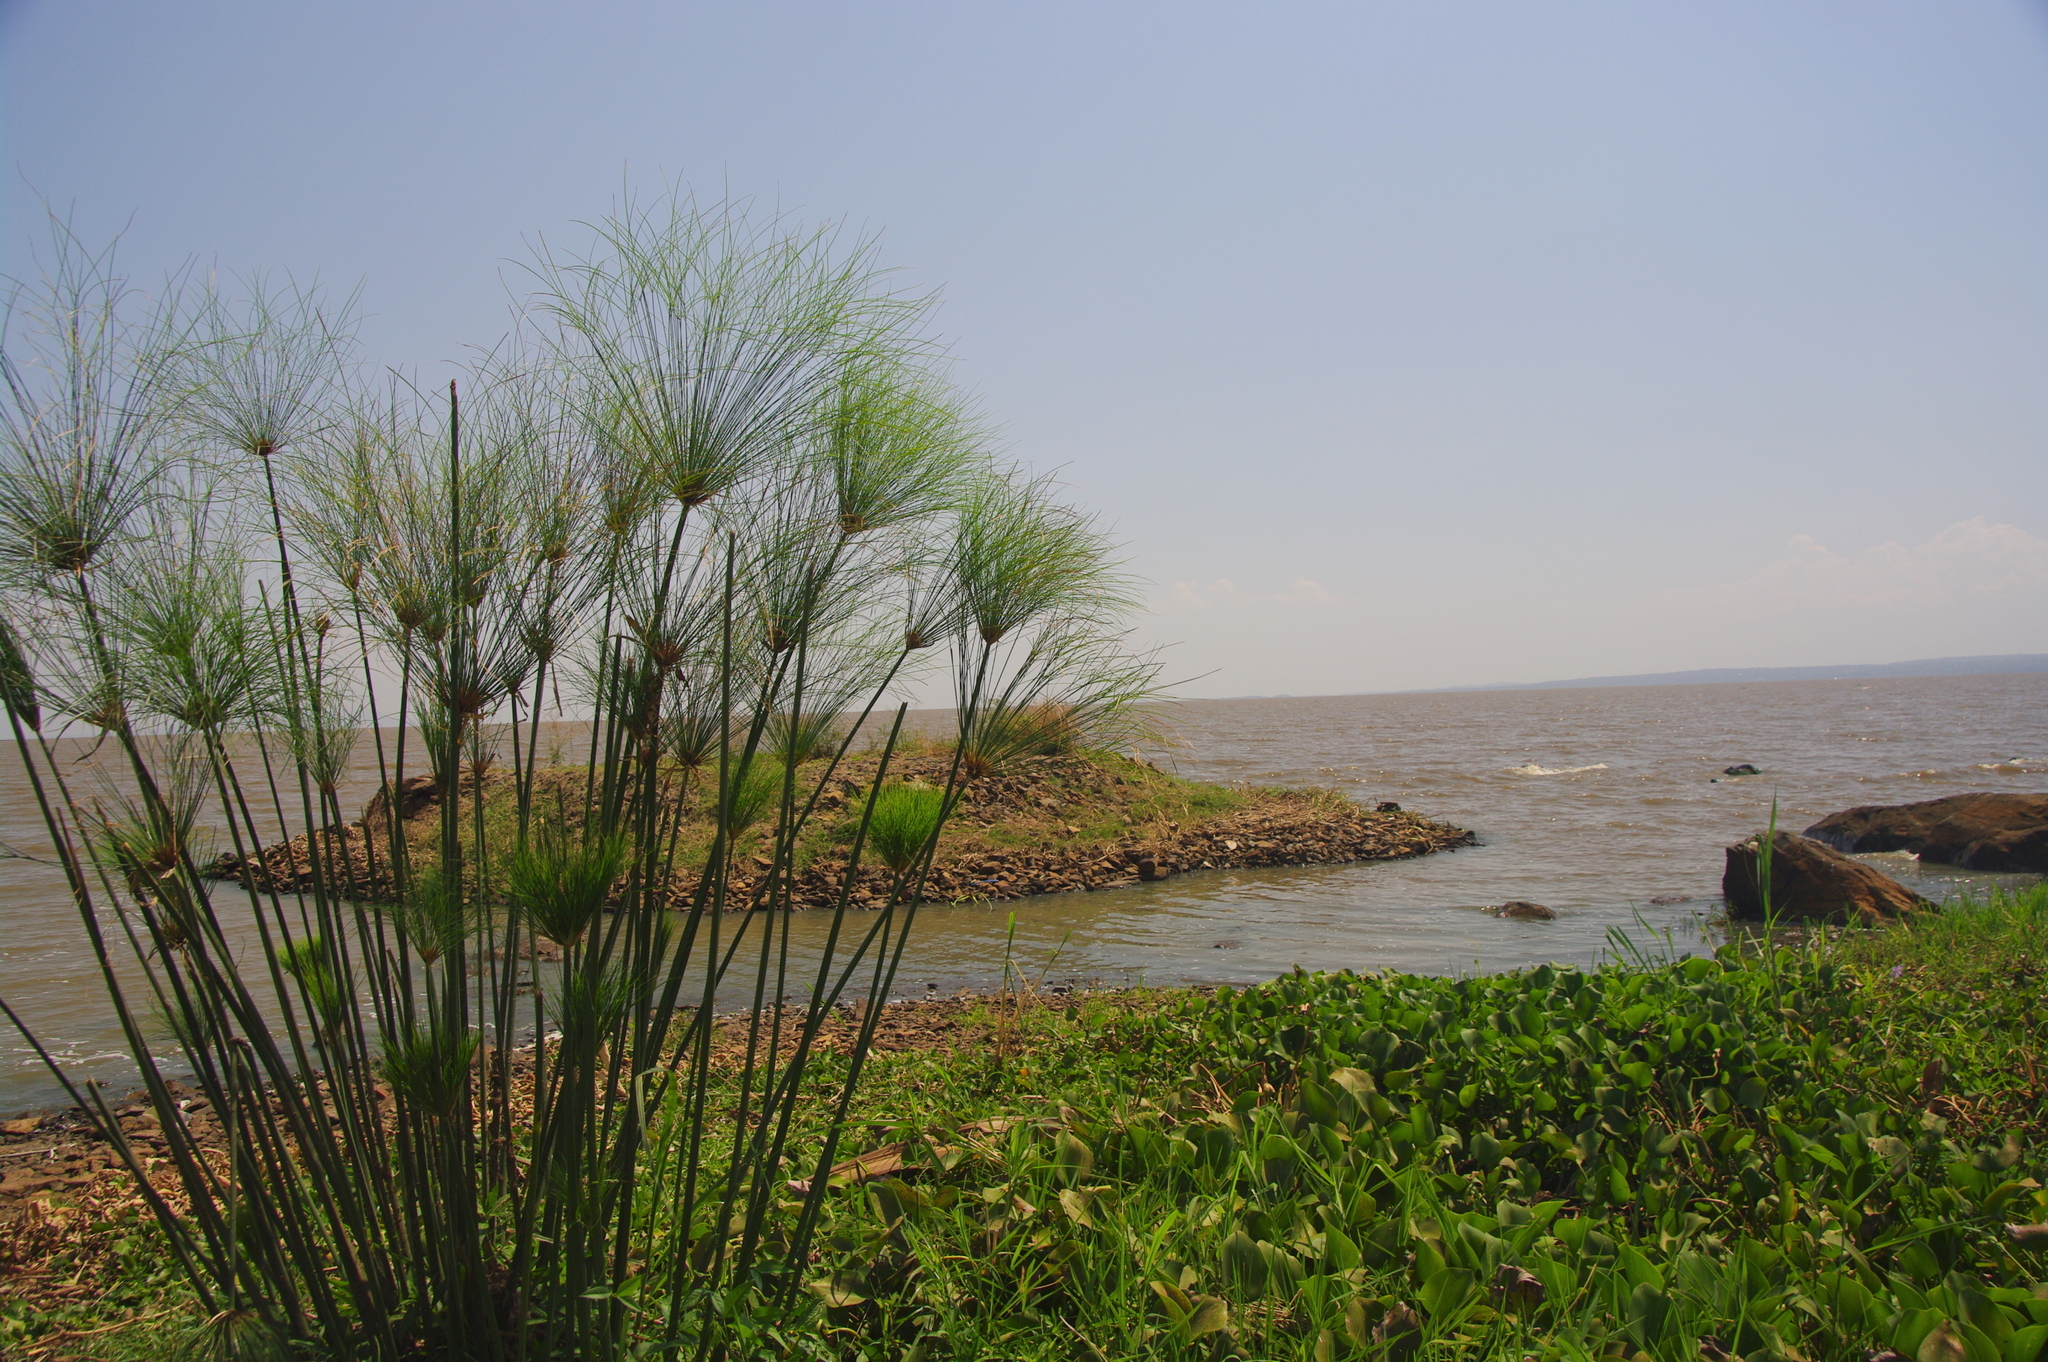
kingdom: Plantae
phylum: Tracheophyta
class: Liliopsida
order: Poales
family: Cyperaceae
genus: Cyperus
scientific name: Cyperus papyrus
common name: Papyrus
